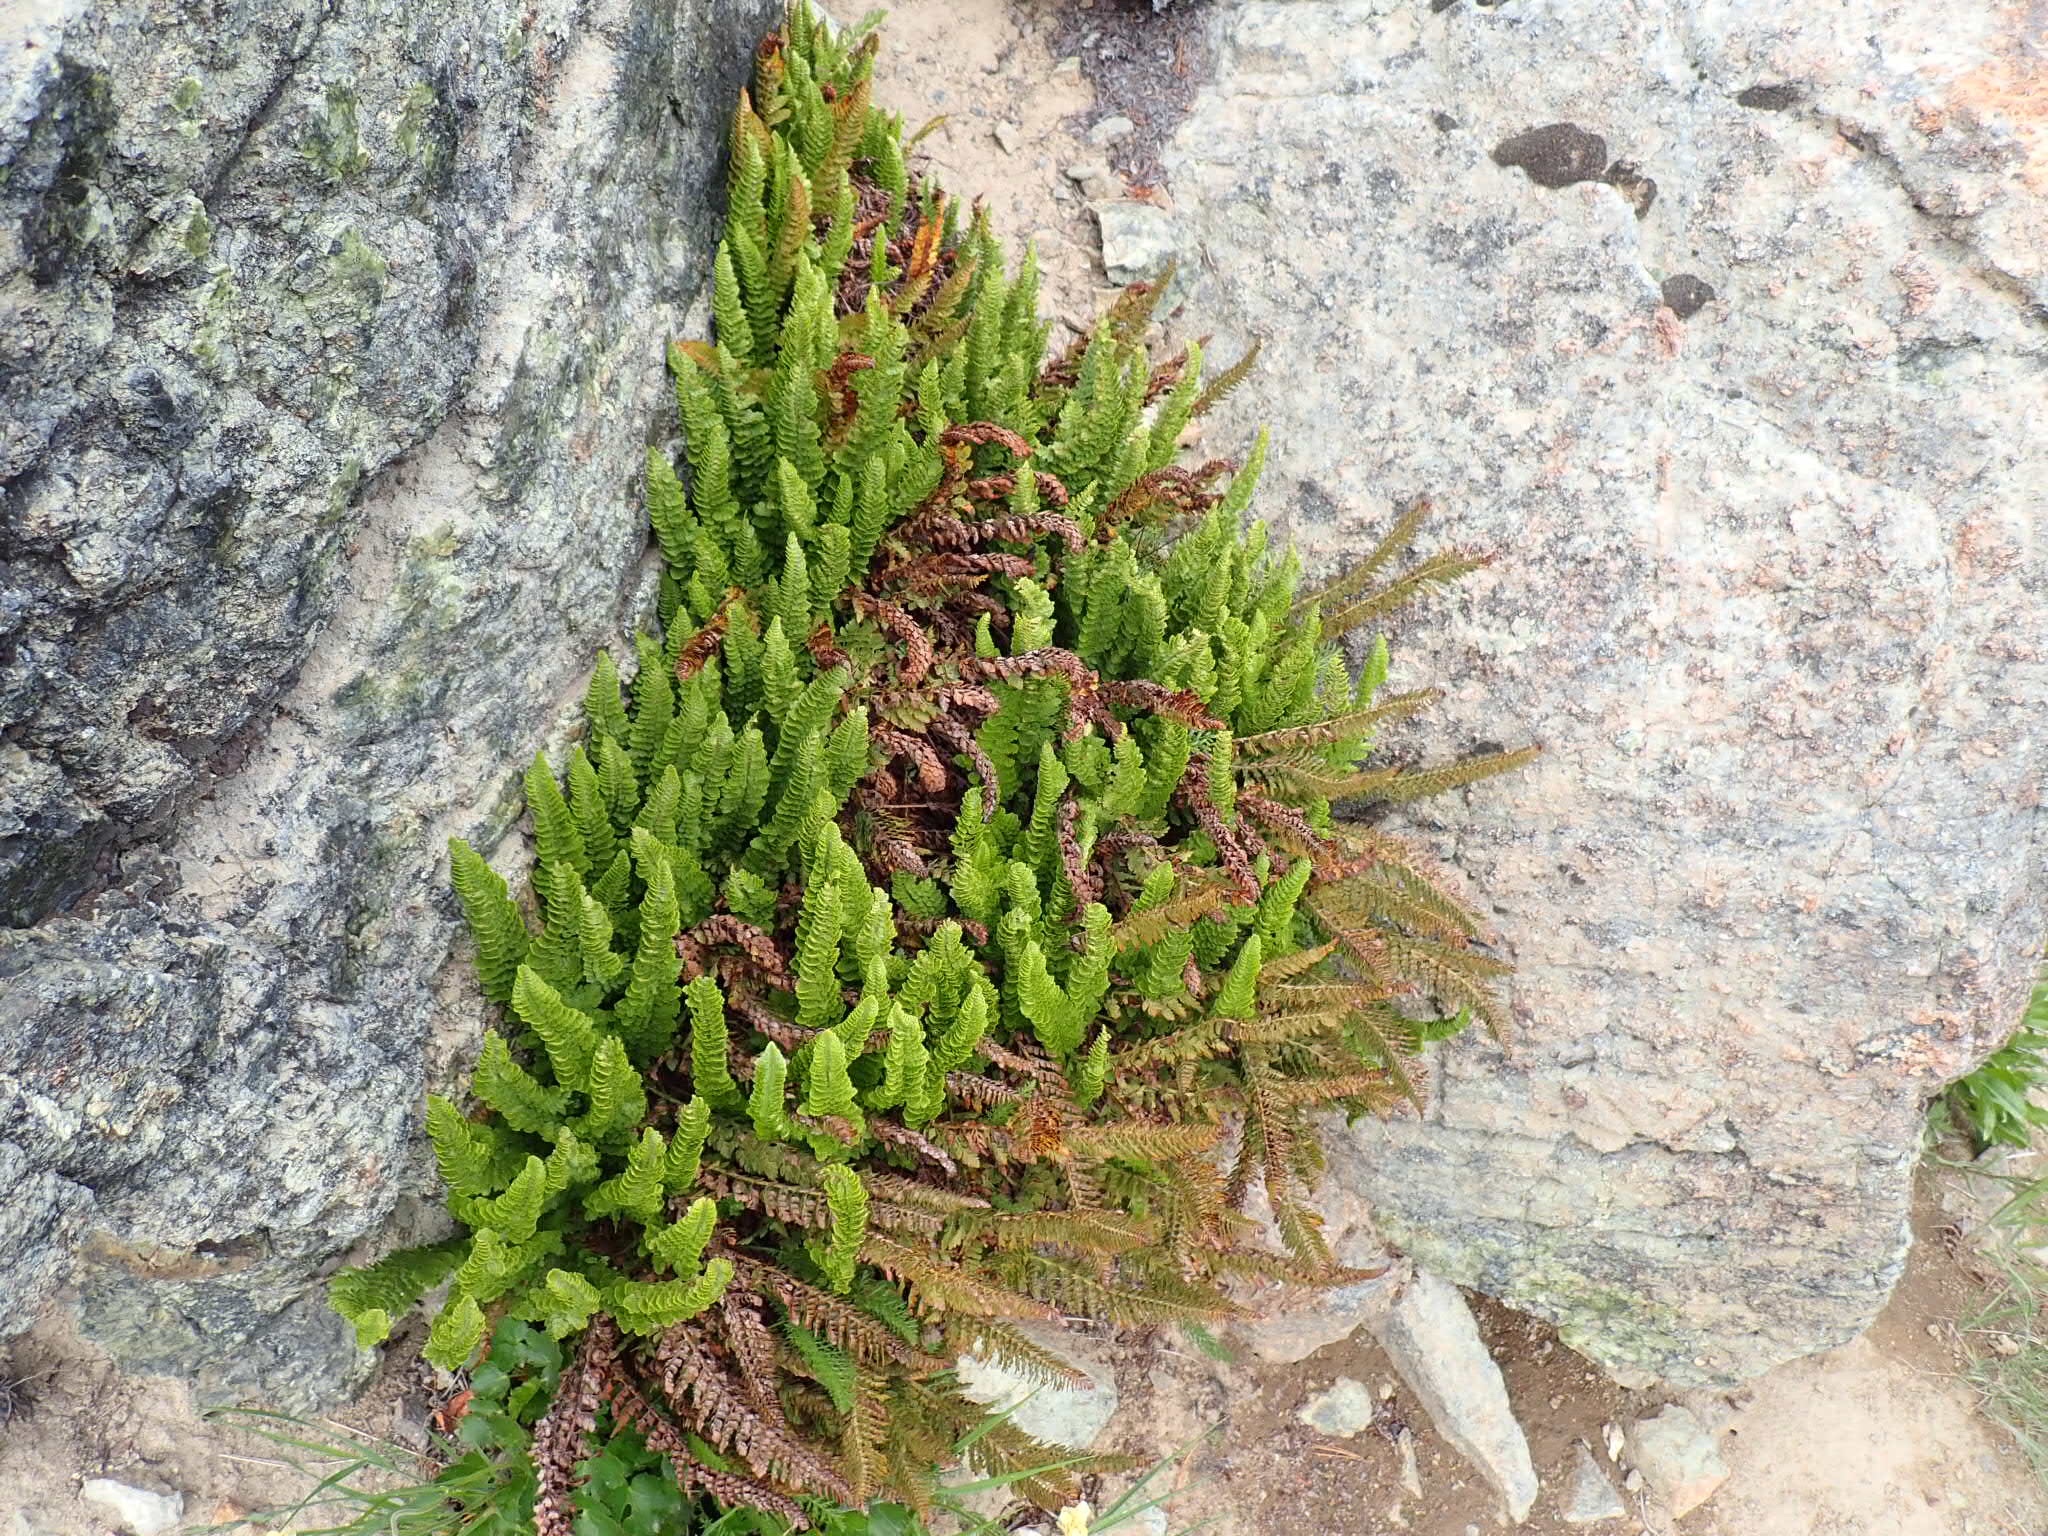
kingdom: Plantae
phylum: Tracheophyta
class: Polypodiopsida
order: Polypodiales
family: Dryopteridaceae
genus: Polystichum
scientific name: Polystichum lemmonii
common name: Lemmon's holly fern
